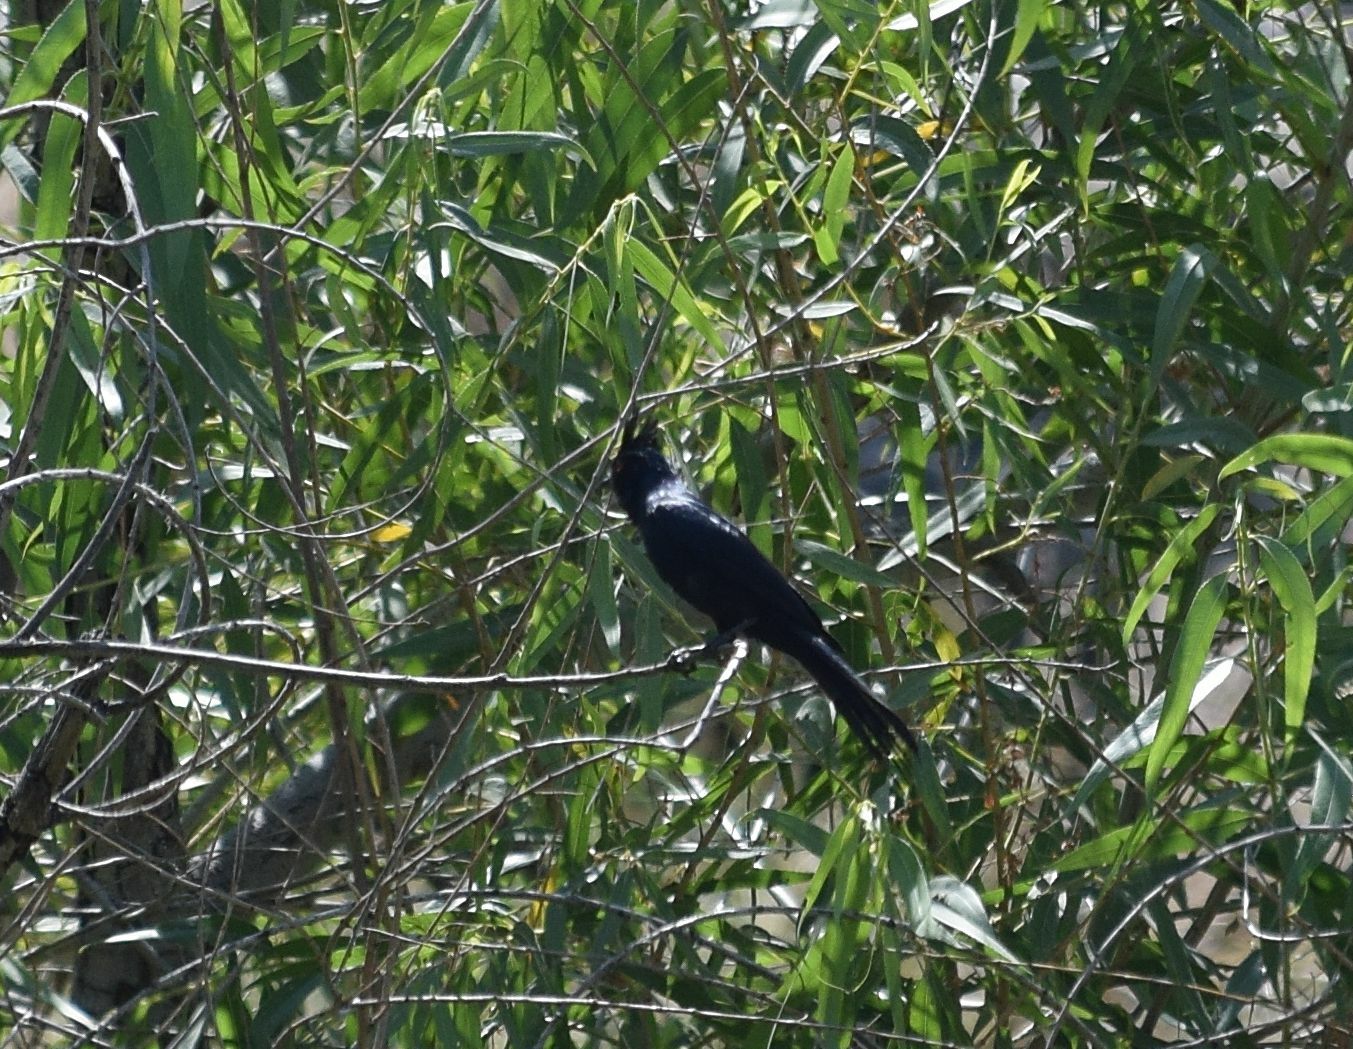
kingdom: Animalia
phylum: Chordata
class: Aves
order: Passeriformes
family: Ptilogonatidae
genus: Phainopepla
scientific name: Phainopepla nitens
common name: Phainopepla
